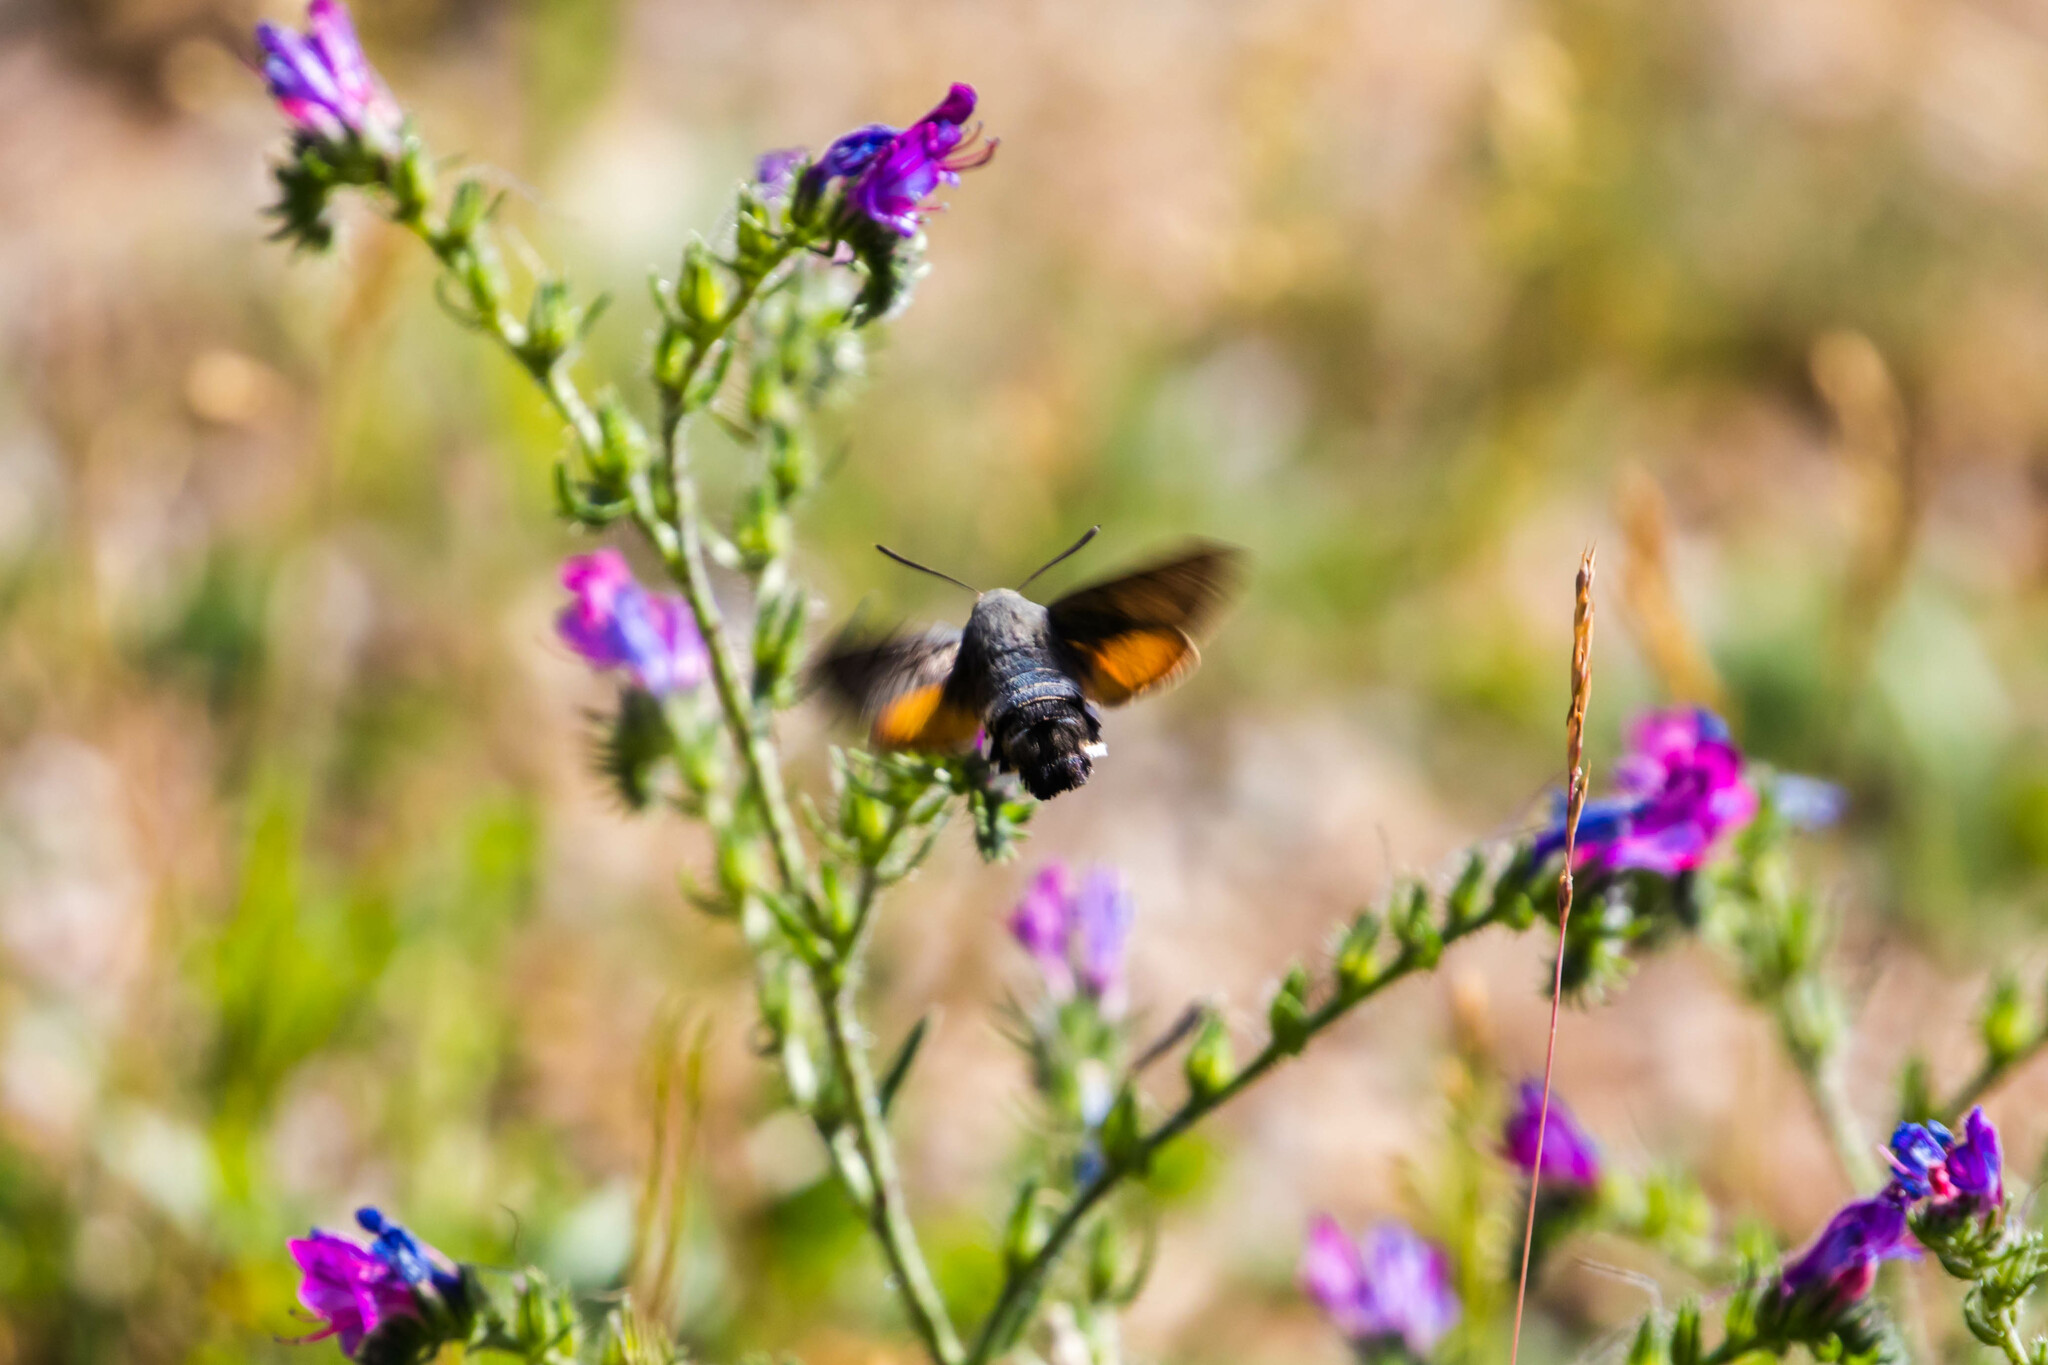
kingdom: Animalia
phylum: Arthropoda
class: Insecta
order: Lepidoptera
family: Sphingidae
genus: Macroglossum
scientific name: Macroglossum stellatarum
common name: Humming-bird hawk-moth
